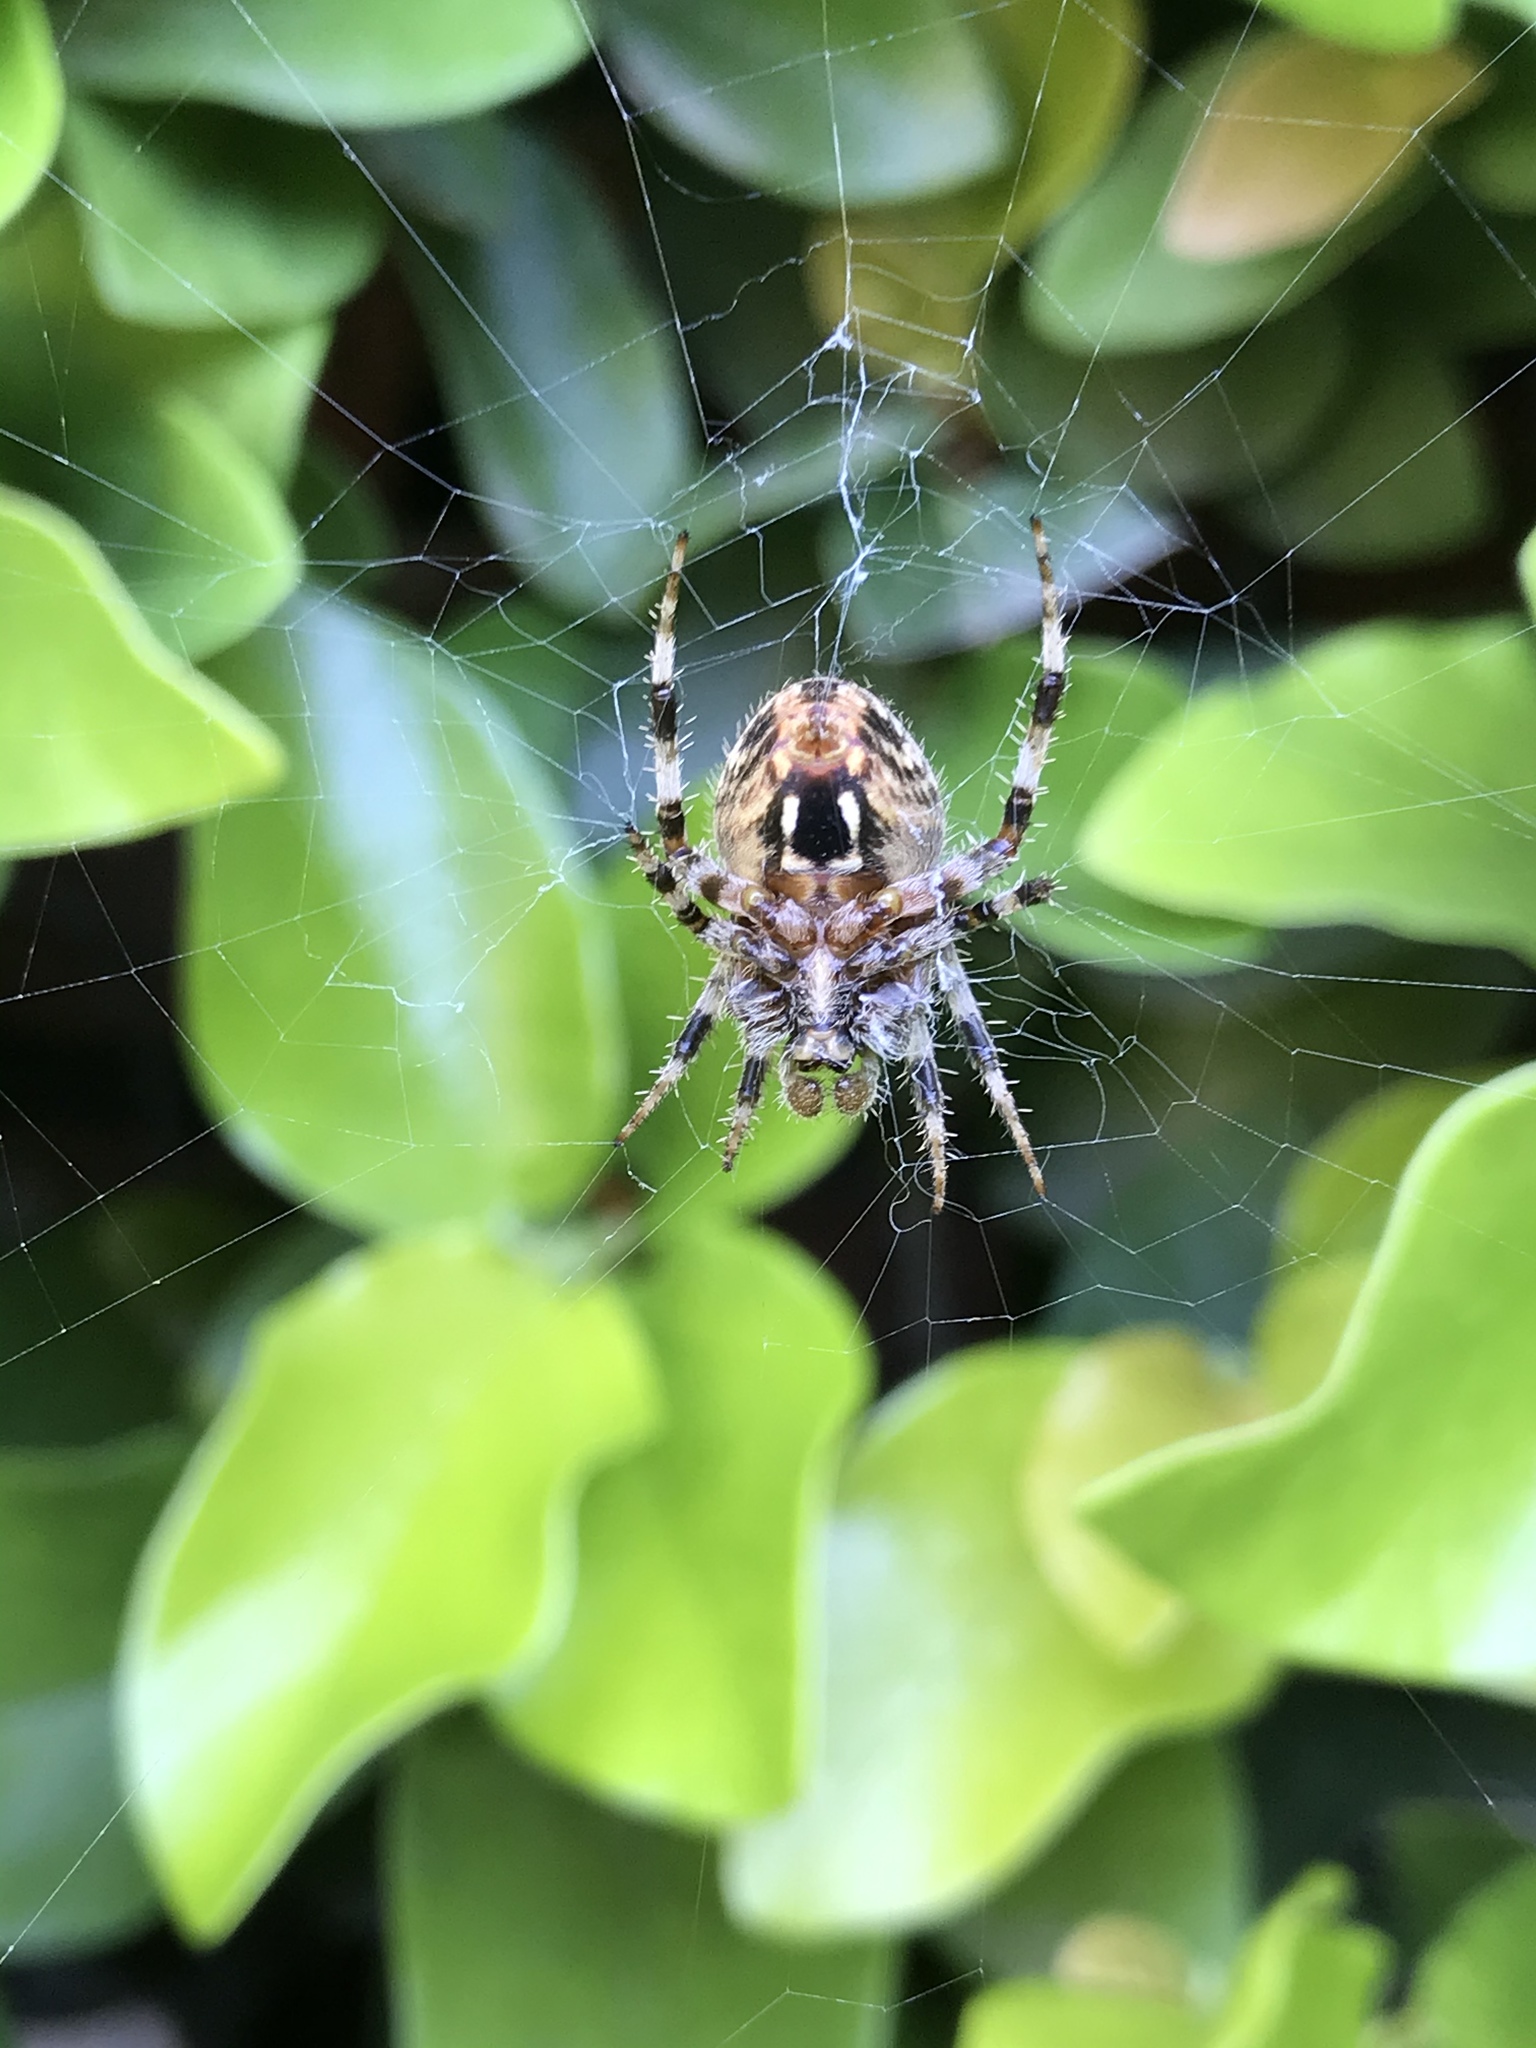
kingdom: Animalia
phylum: Arthropoda
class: Arachnida
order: Araneae
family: Araneidae
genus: Neoscona
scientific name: Neoscona crucifera
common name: Spotted orbweaver
